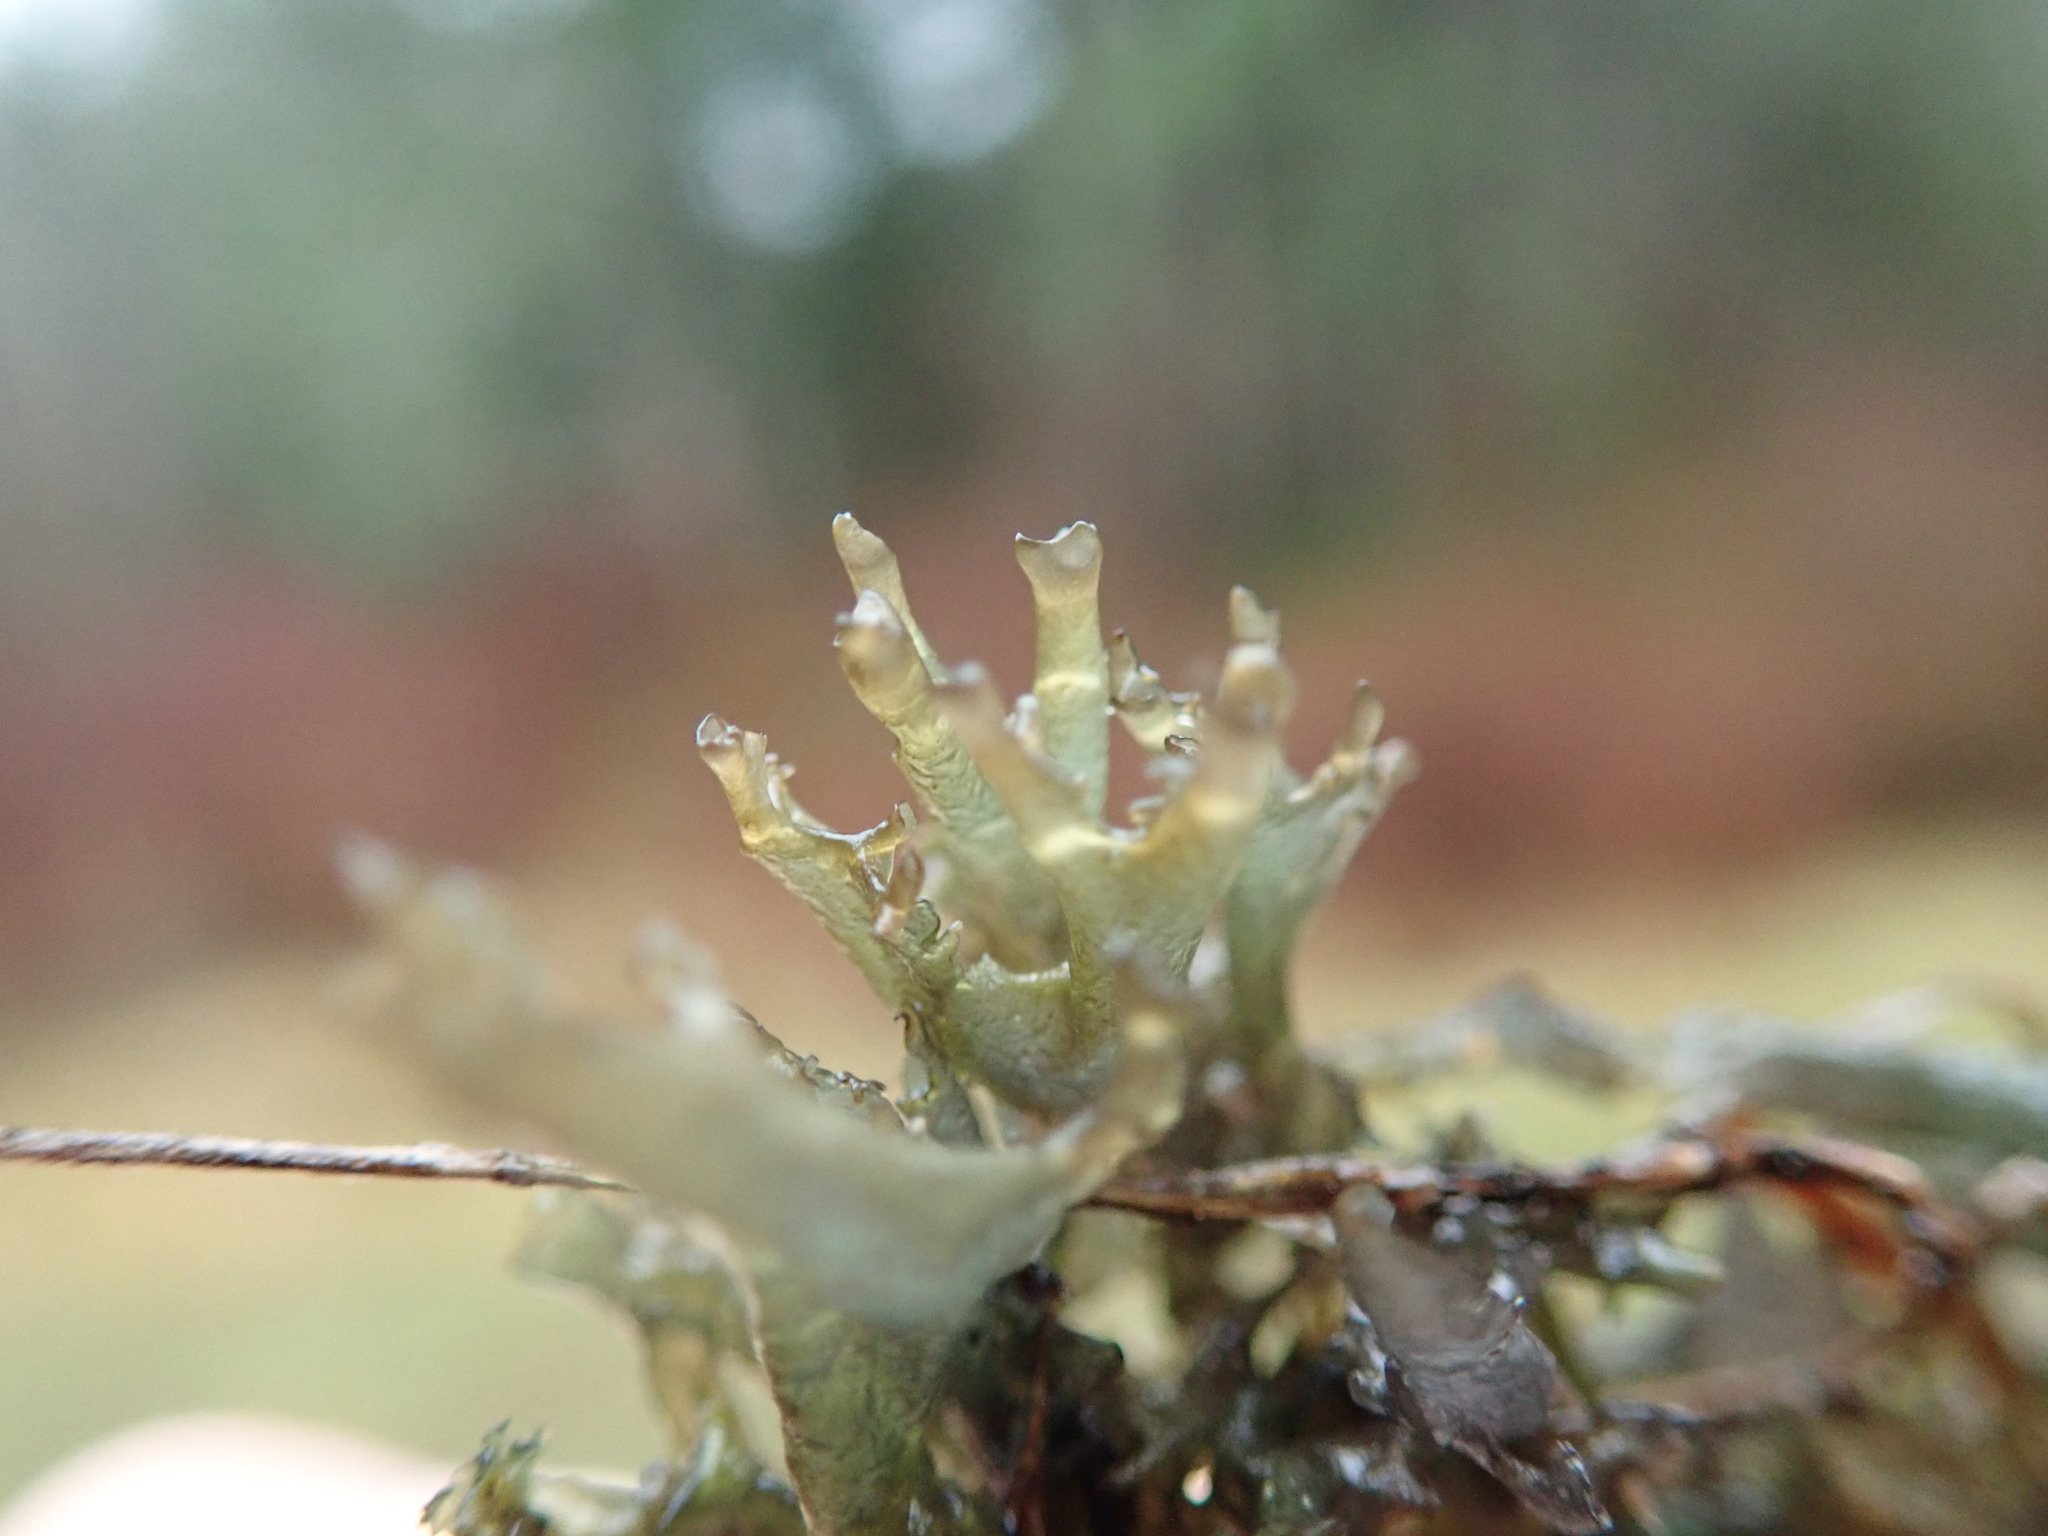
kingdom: Fungi
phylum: Ascomycota
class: Lecanoromycetes
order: Peltigerales
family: Collemataceae
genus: Scytinium
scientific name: Scytinium palmatum
